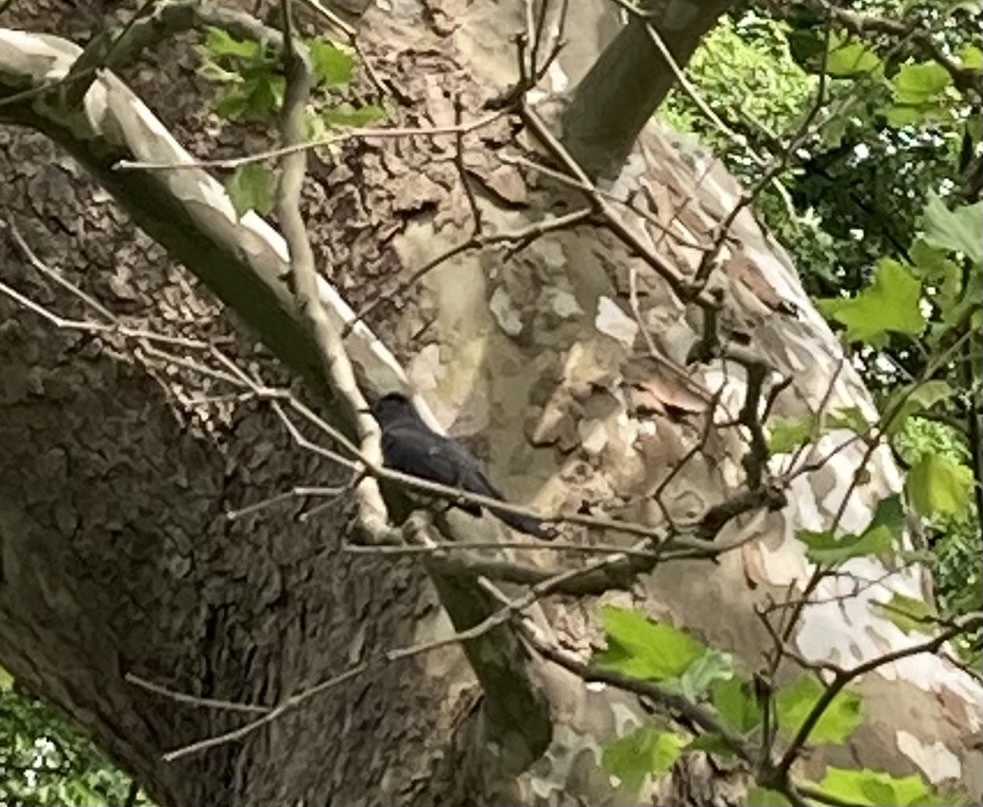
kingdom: Animalia
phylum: Chordata
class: Aves
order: Passeriformes
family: Mimidae
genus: Dumetella
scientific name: Dumetella carolinensis
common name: Gray catbird
